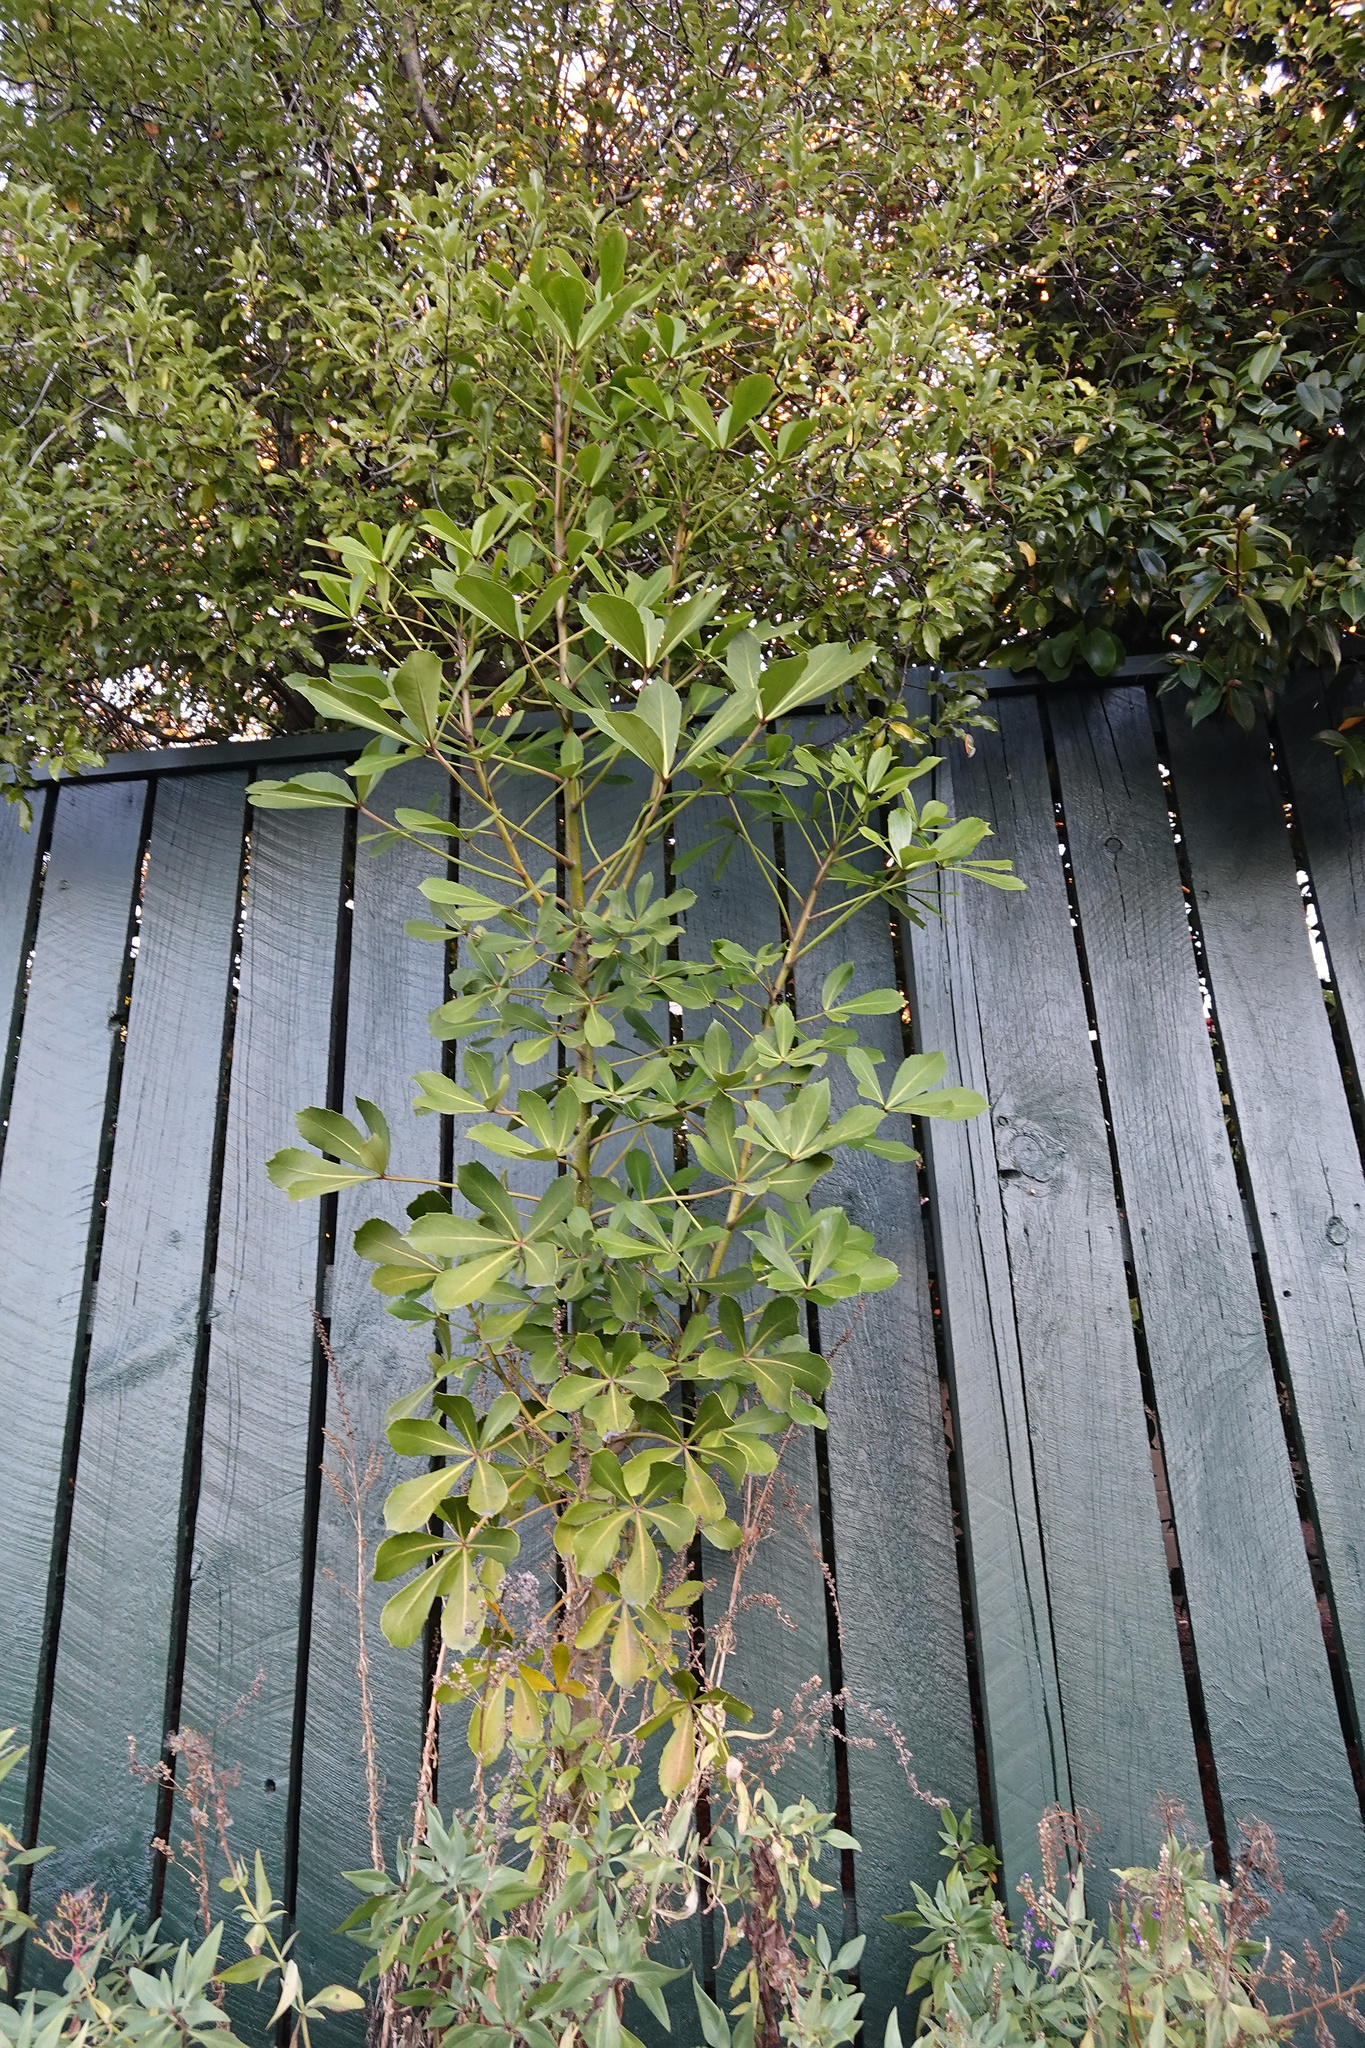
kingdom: Plantae
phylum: Tracheophyta
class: Magnoliopsida
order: Apiales
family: Araliaceae
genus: Pseudopanax
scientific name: Pseudopanax lessonii
